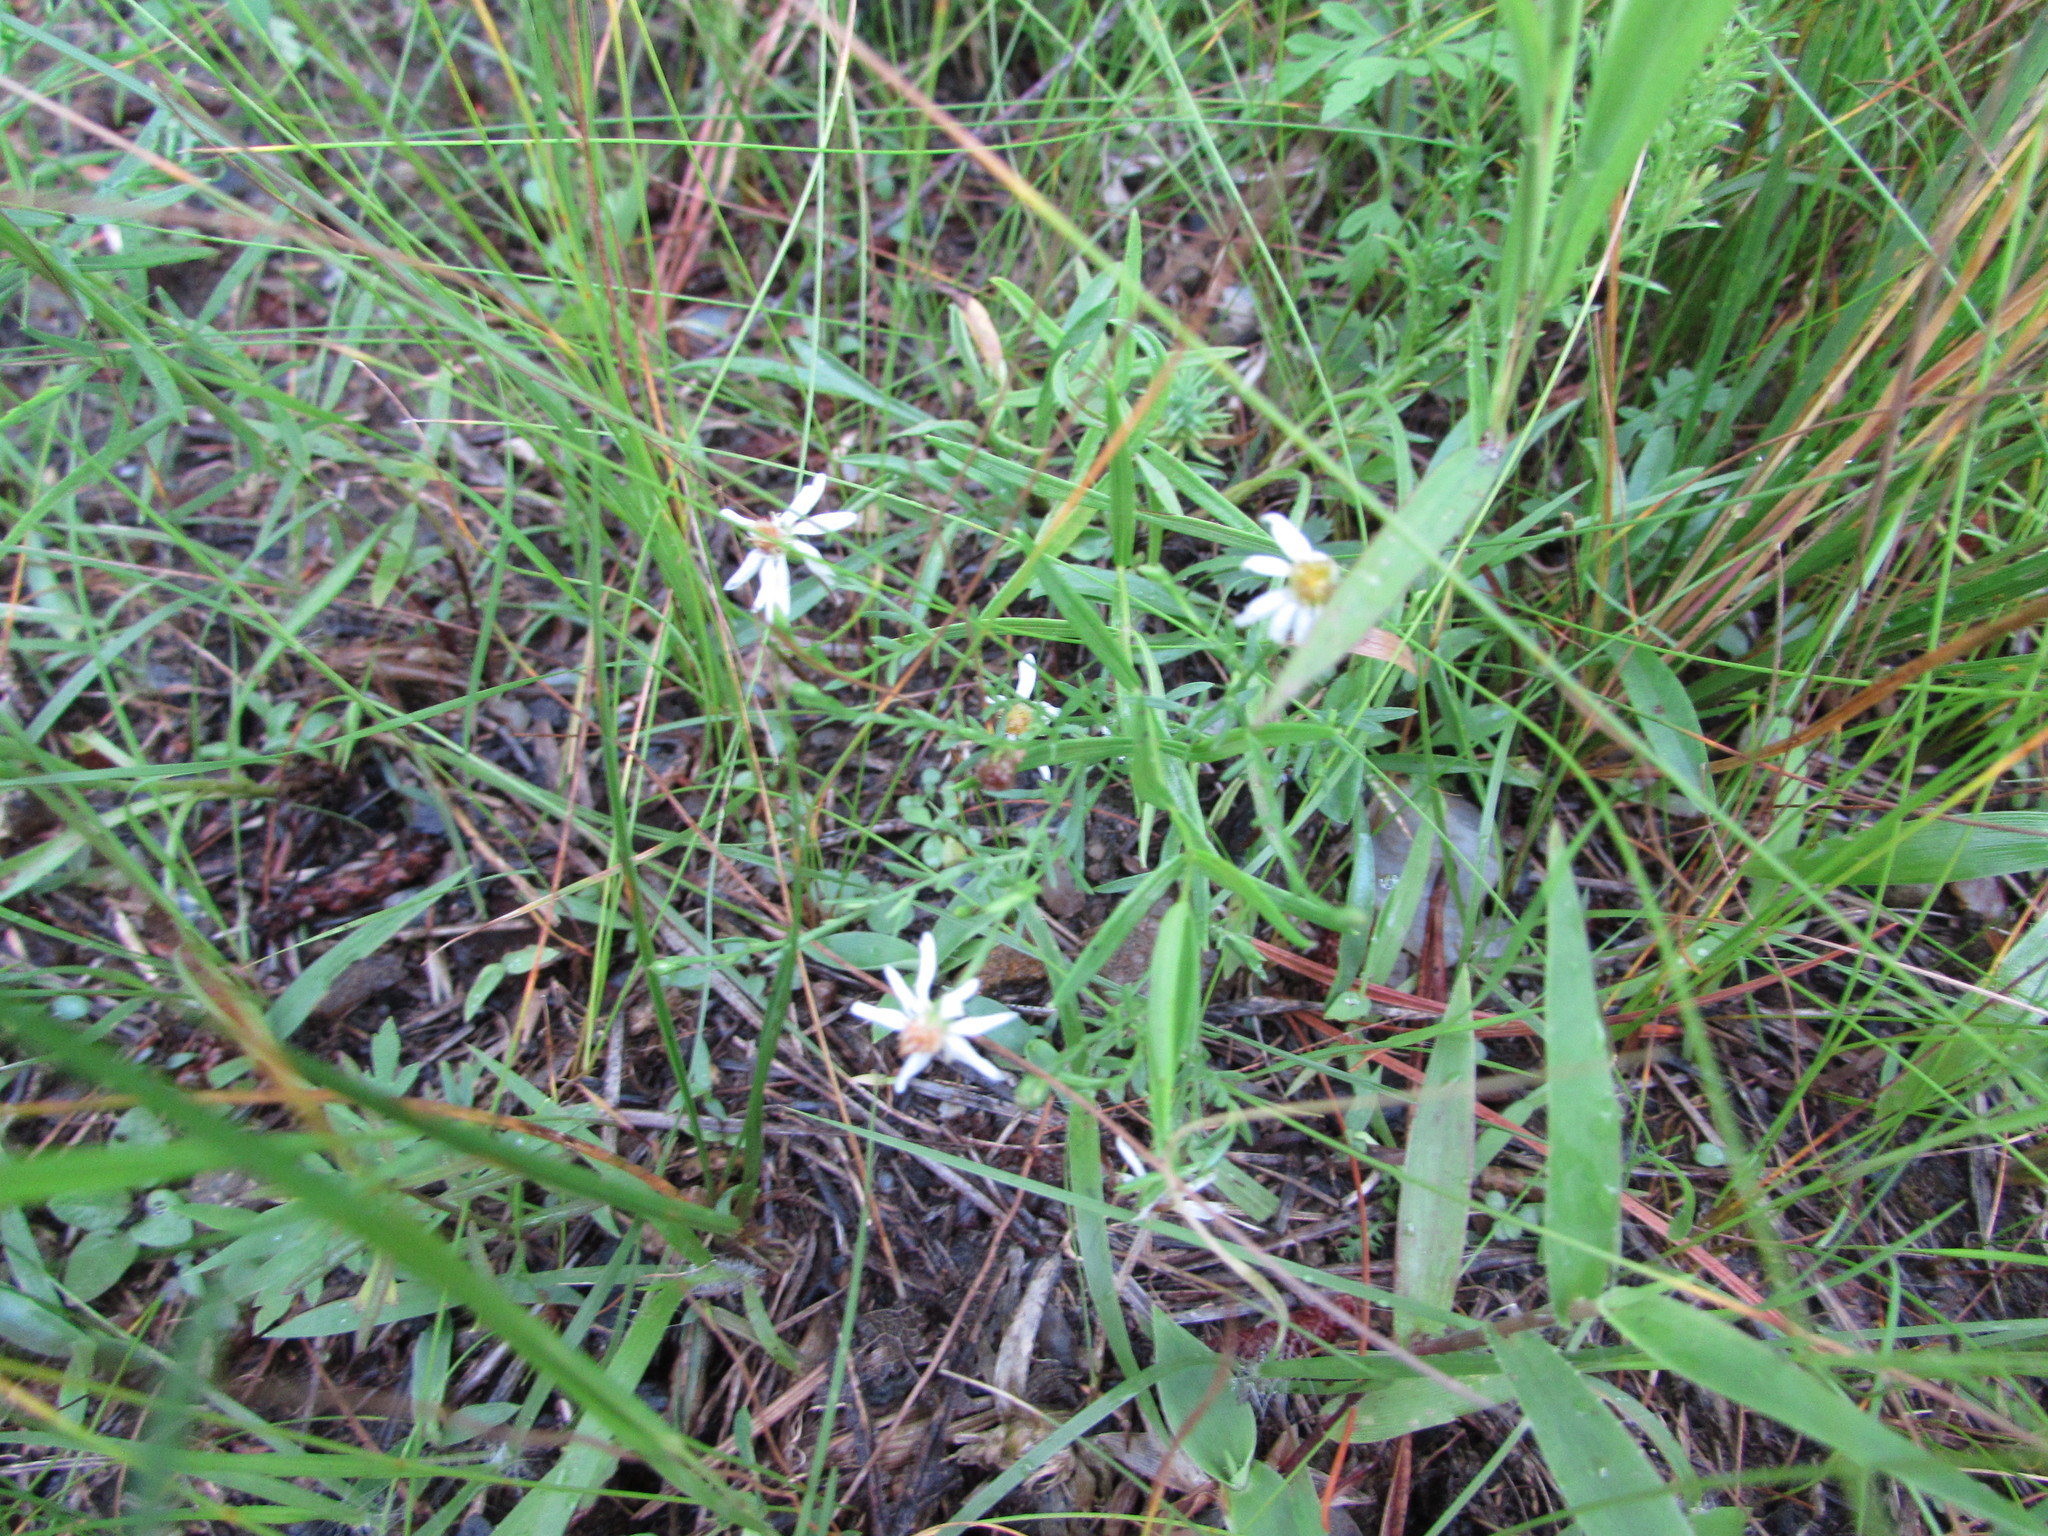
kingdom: Plantae
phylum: Tracheophyta
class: Magnoliopsida
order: Asterales
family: Asteraceae
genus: Symphyotrichum
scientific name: Symphyotrichum depauperatum
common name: Serpentine aster
